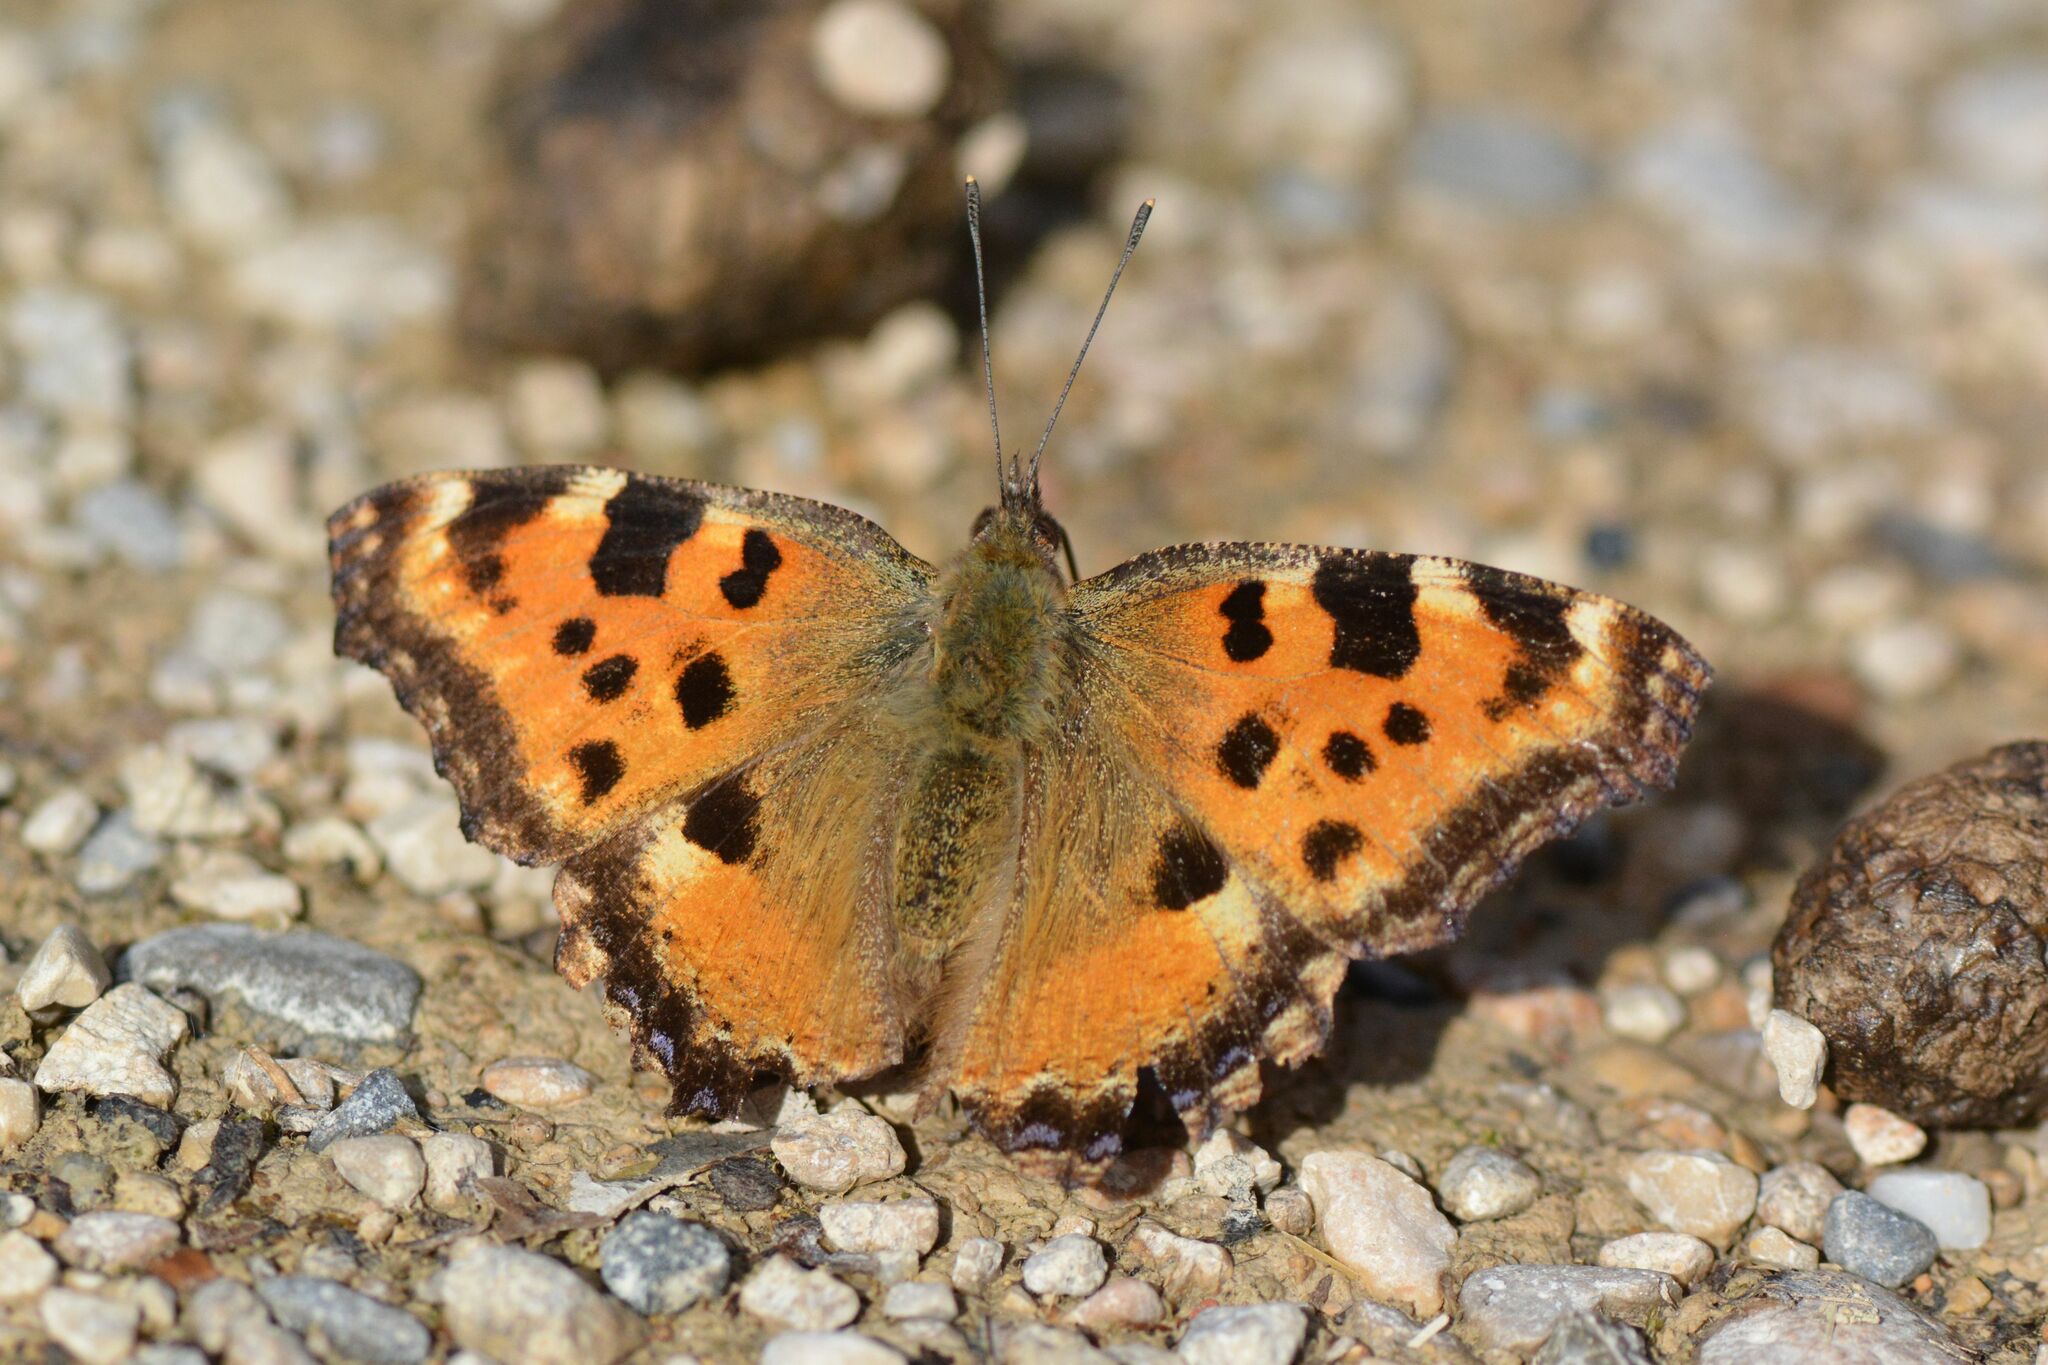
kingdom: Animalia
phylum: Arthropoda
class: Insecta
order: Lepidoptera
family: Nymphalidae
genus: Nymphalis
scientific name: Nymphalis polychloros
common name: Large tortoiseshell
